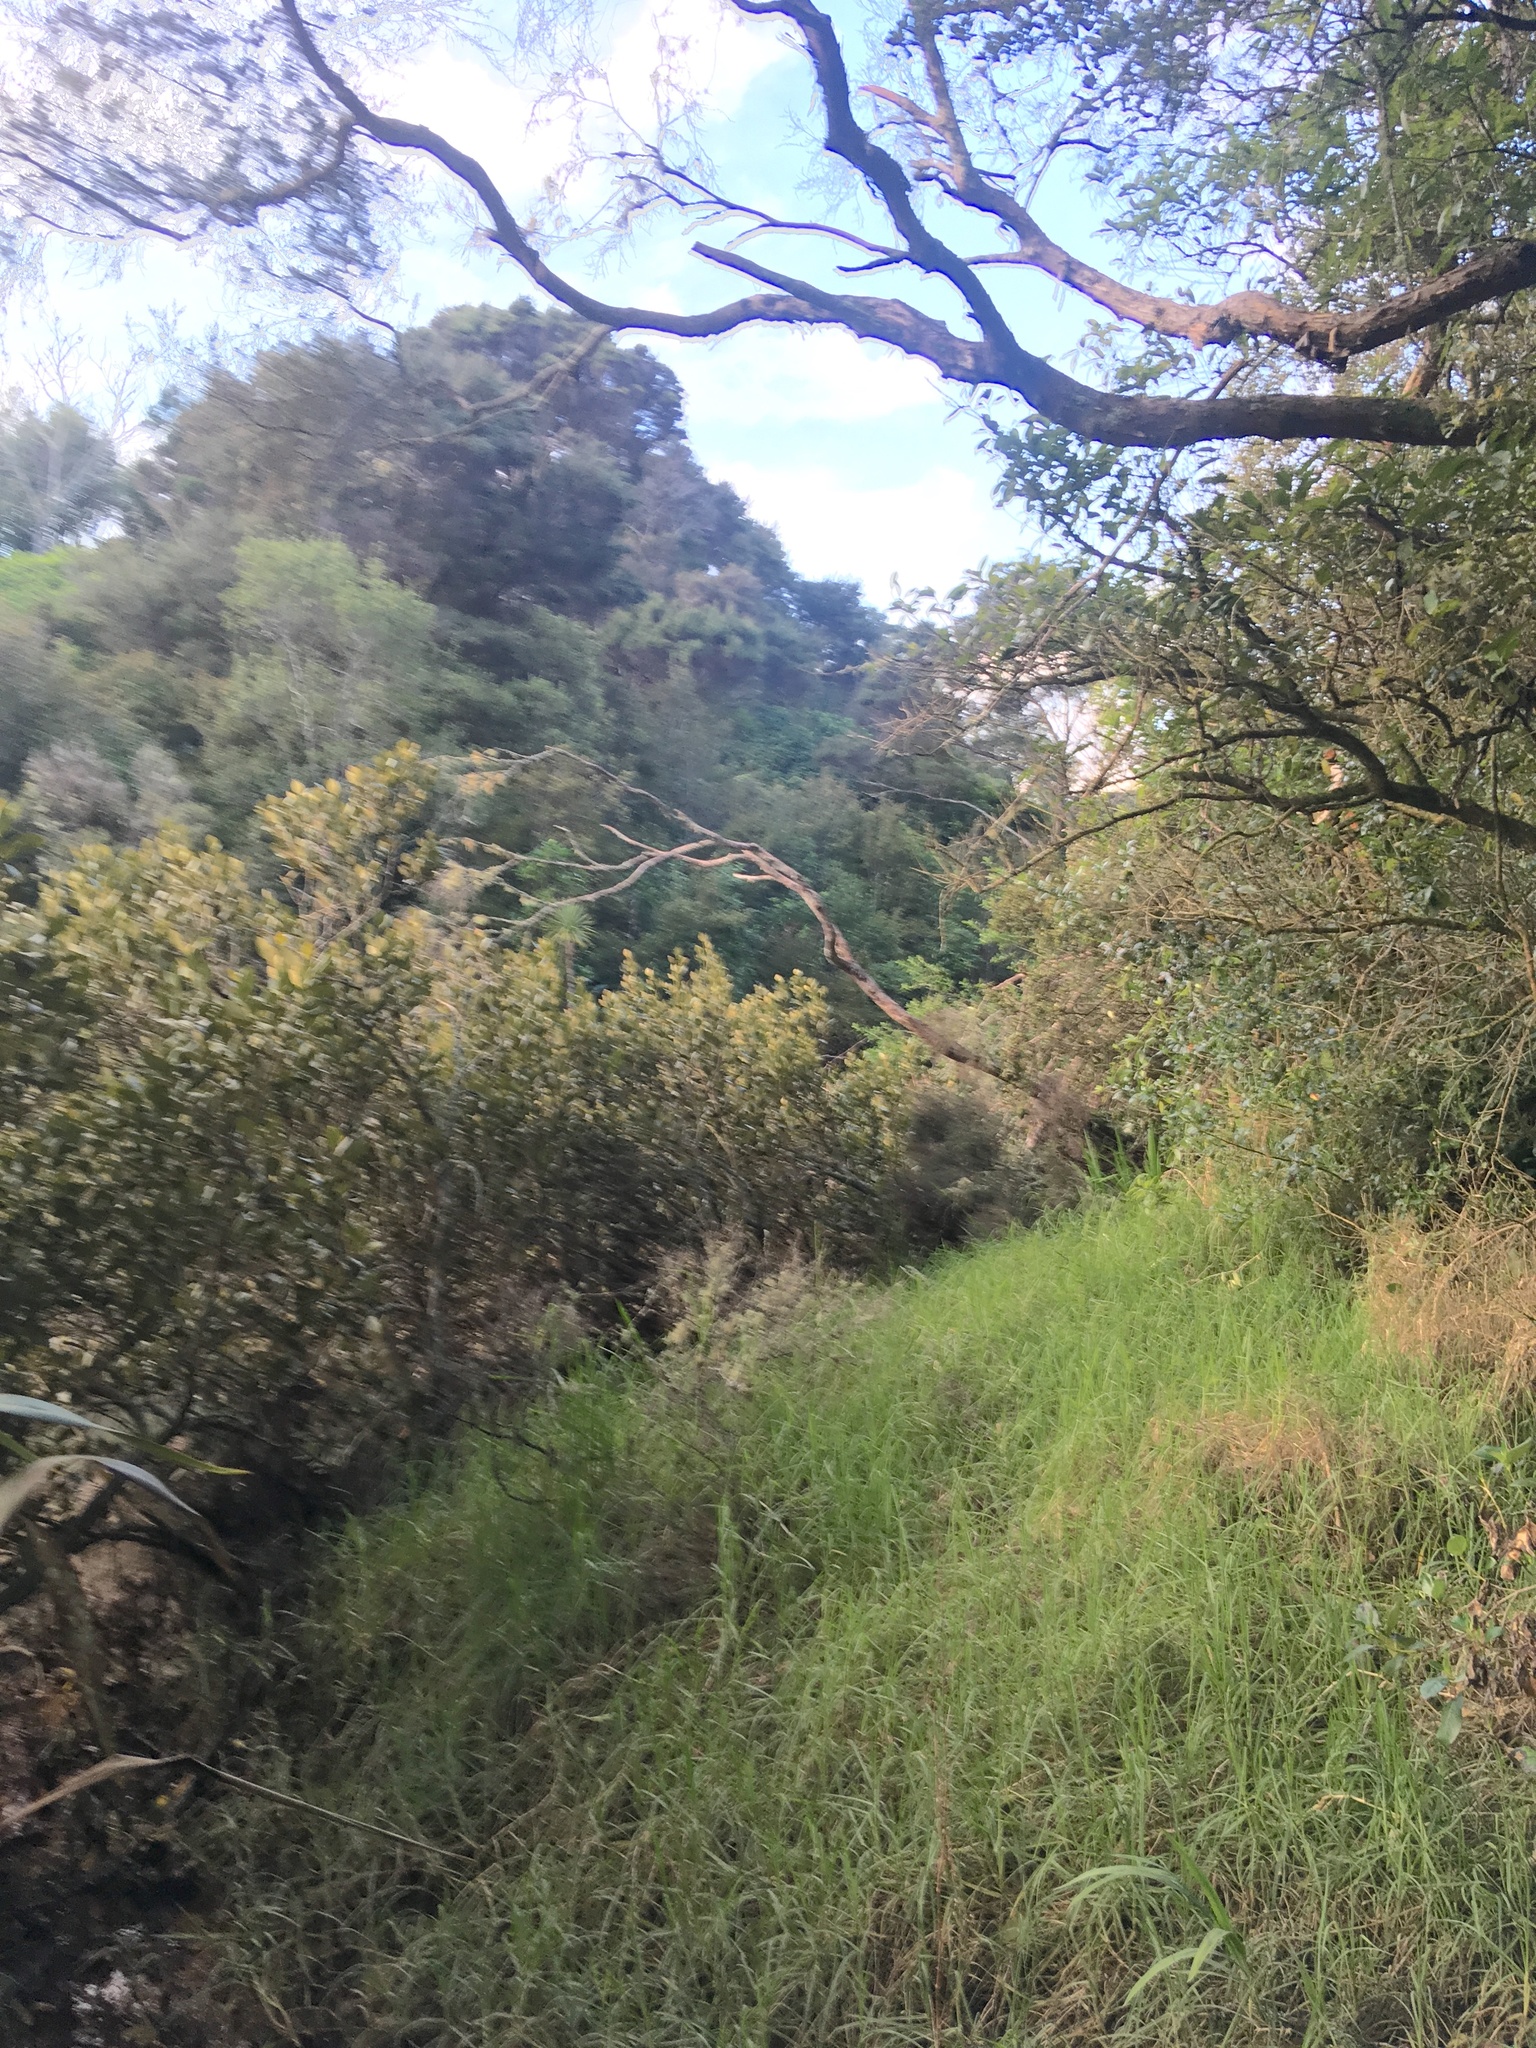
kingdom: Plantae
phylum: Tracheophyta
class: Magnoliopsida
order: Lamiales
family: Acanthaceae
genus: Avicennia
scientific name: Avicennia marina
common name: Gray mangrove
